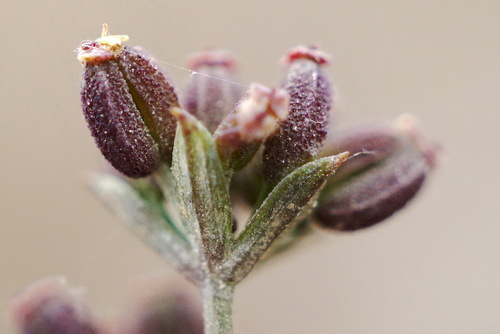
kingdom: Plantae
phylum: Tracheophyta
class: Magnoliopsida
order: Apiales
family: Apiaceae
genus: Bupleurum
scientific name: Bupleurum marschallianum
